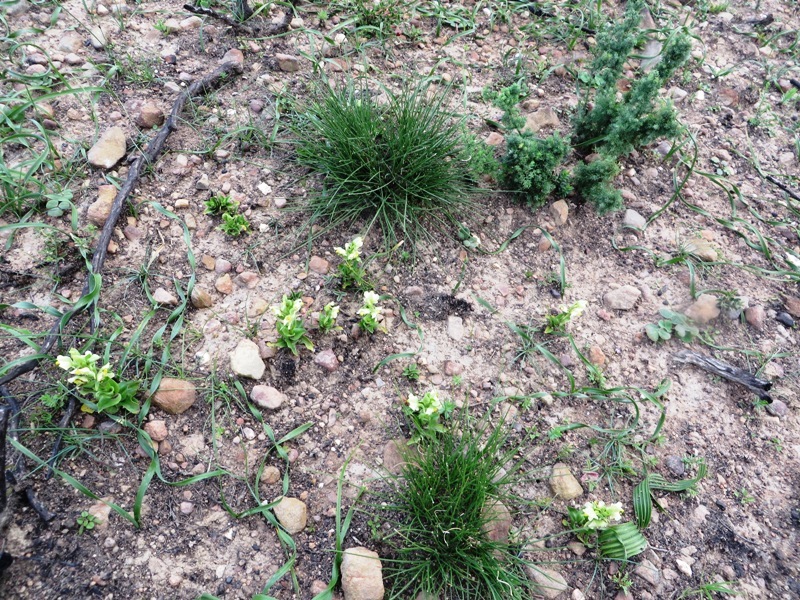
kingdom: Plantae
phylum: Tracheophyta
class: Liliopsida
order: Asparagales
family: Orchidaceae
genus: Pterygodium
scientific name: Pterygodium alatum
